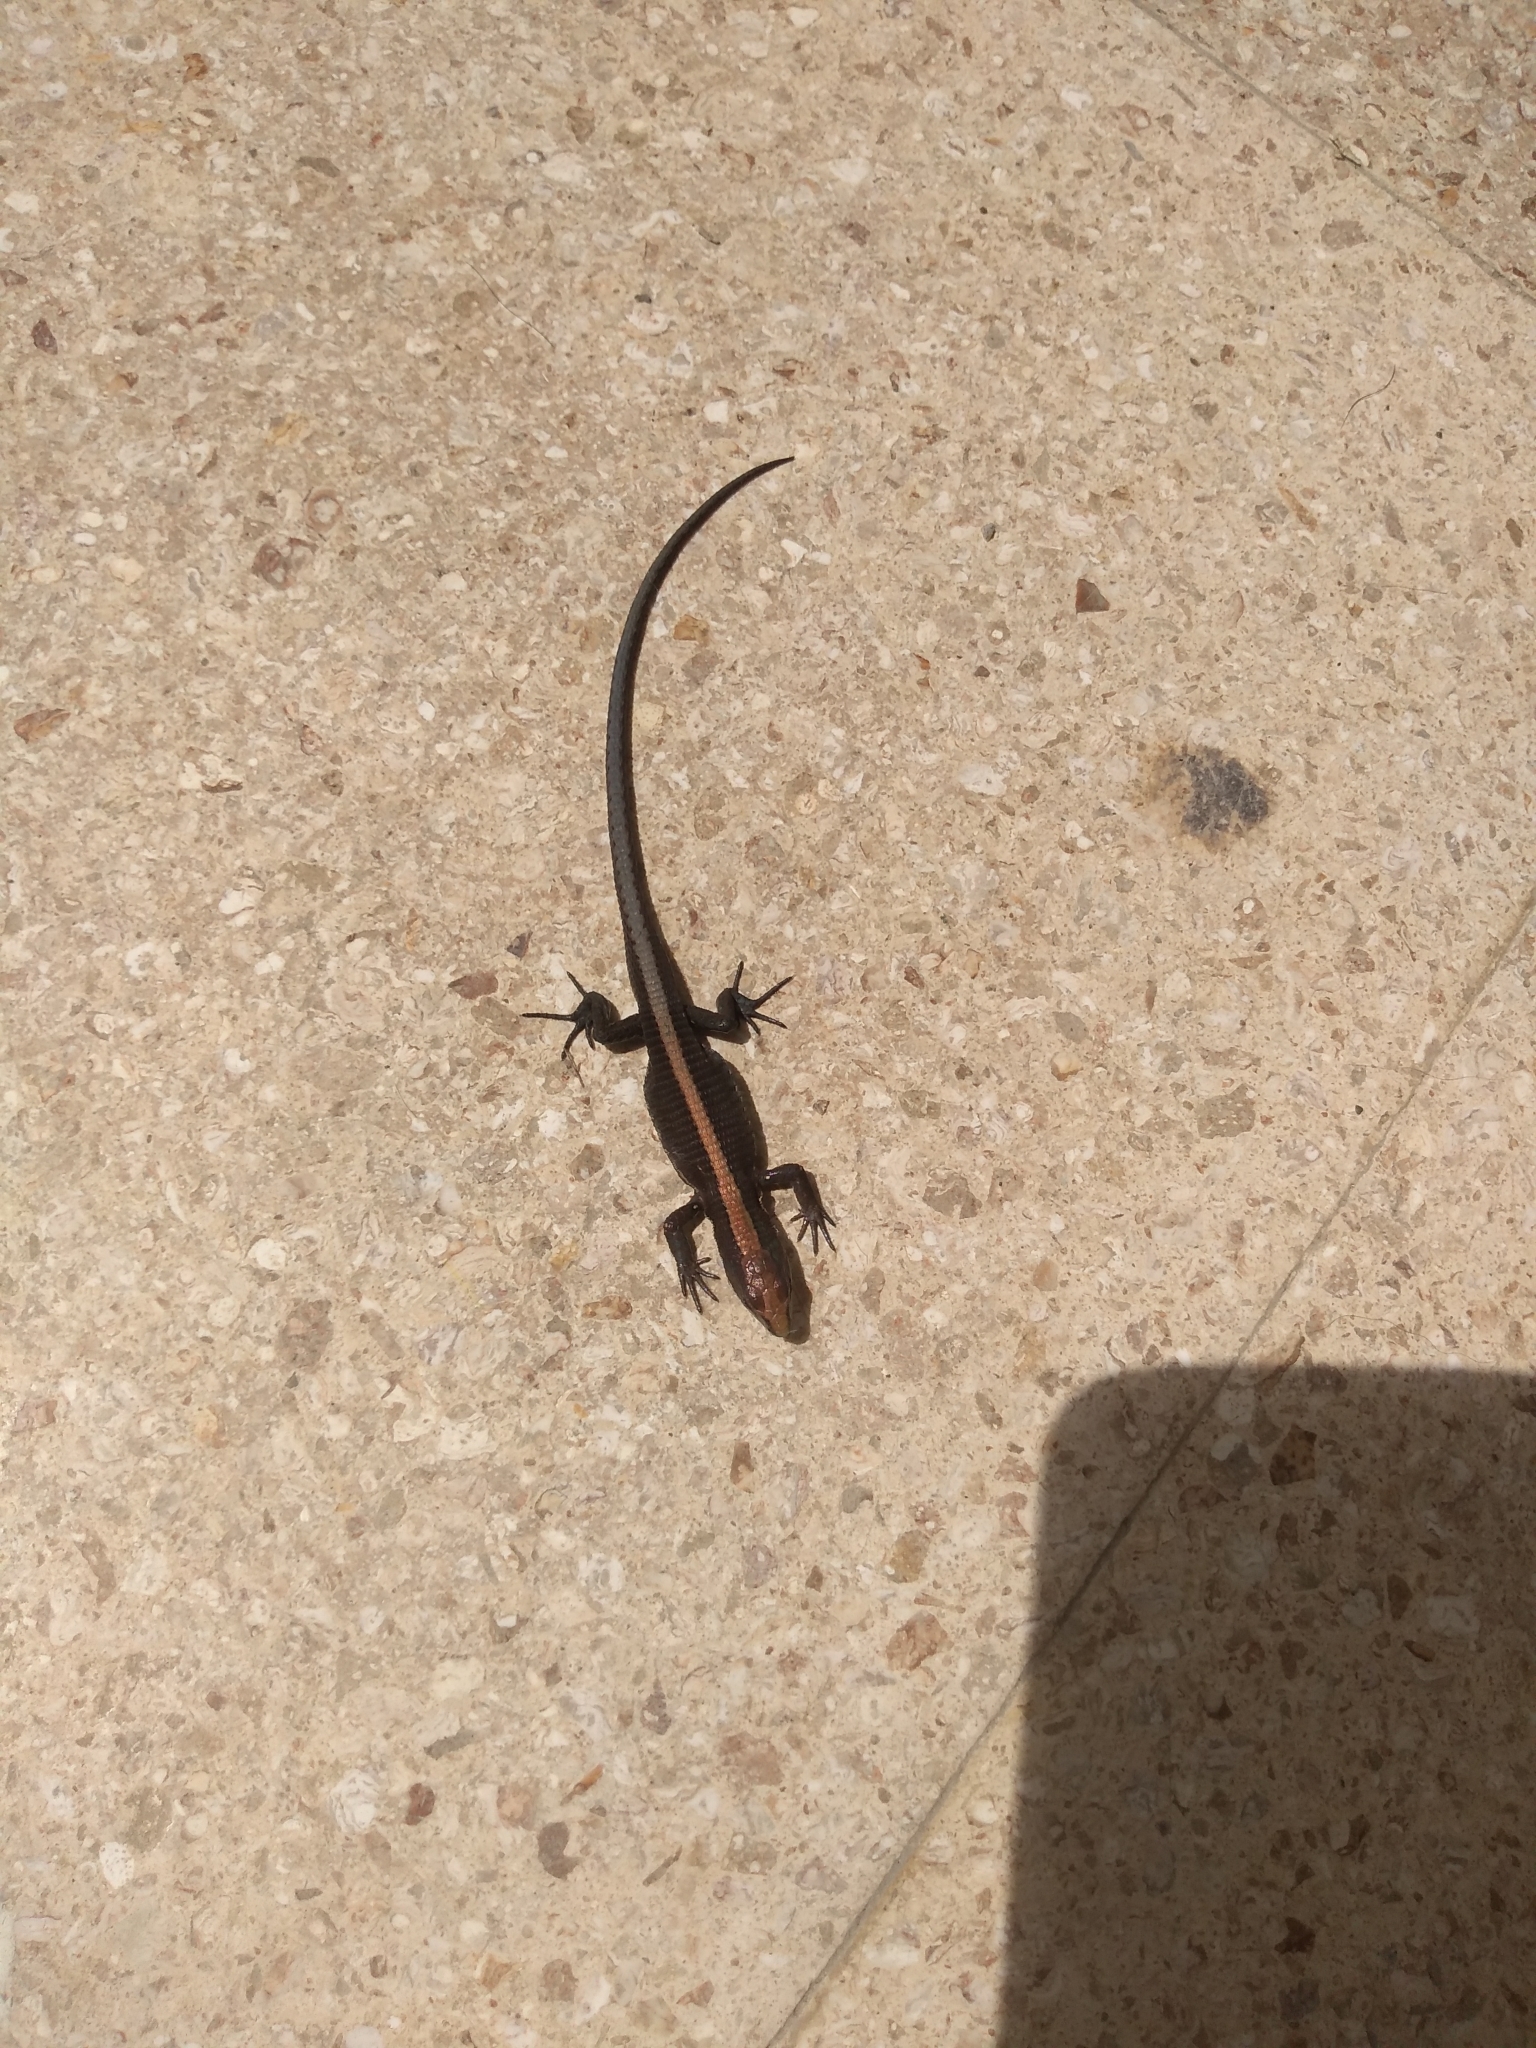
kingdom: Animalia
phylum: Chordata
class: Squamata
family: Gymnophthalmidae
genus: Pholidobolus
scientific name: Pholidobolus vertebralis
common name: Brown prionodactylus
